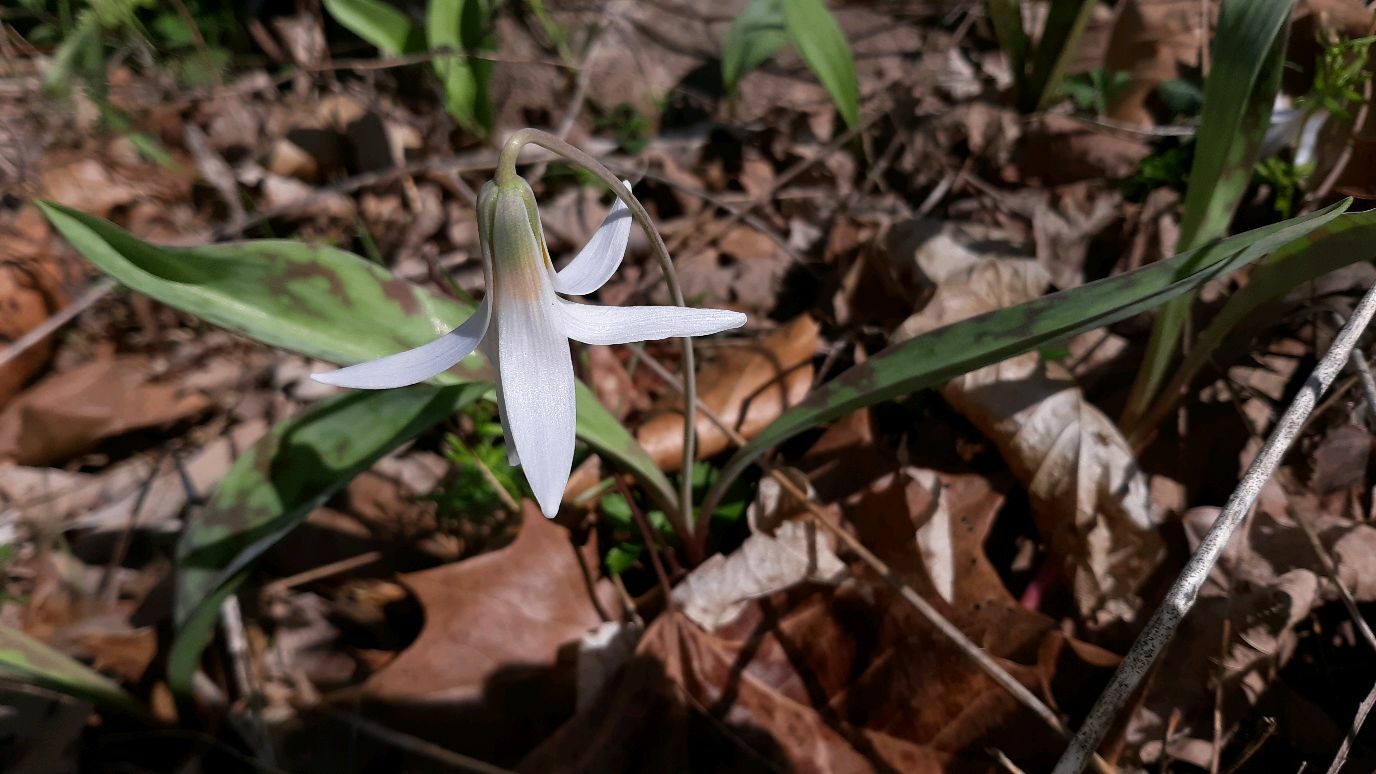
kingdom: Plantae
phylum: Tracheophyta
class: Liliopsida
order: Liliales
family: Liliaceae
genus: Erythronium
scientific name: Erythronium albidum
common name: White trout-lily
